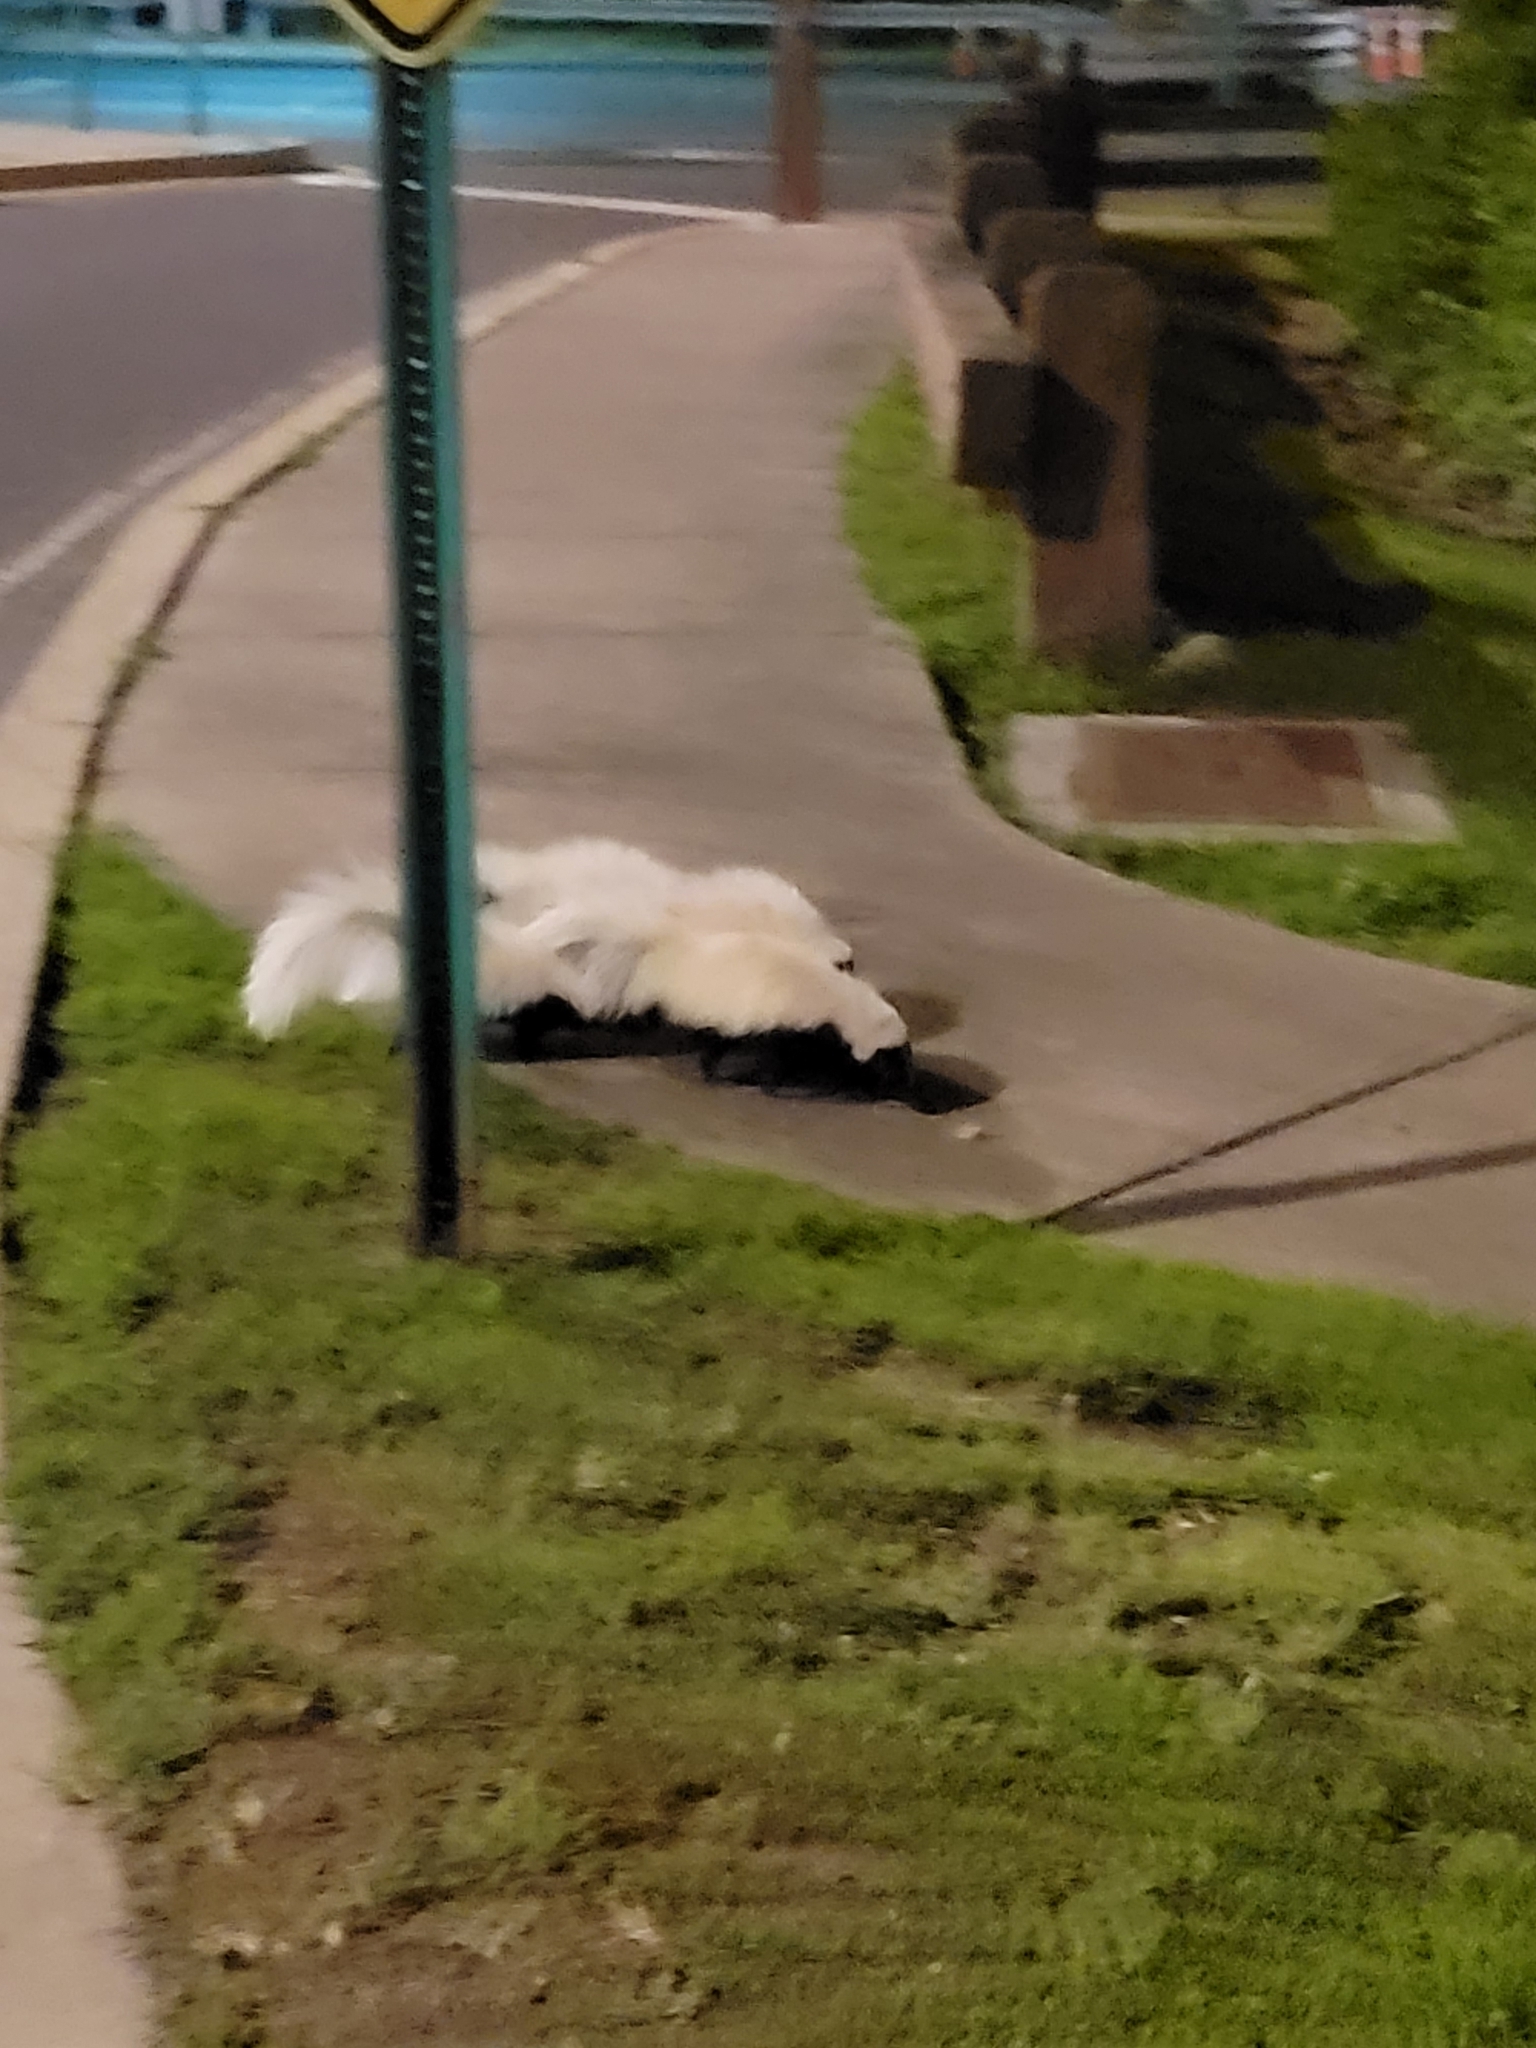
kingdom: Animalia
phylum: Chordata
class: Mammalia
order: Carnivora
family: Mephitidae
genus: Mephitis
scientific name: Mephitis mephitis
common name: Striped skunk
